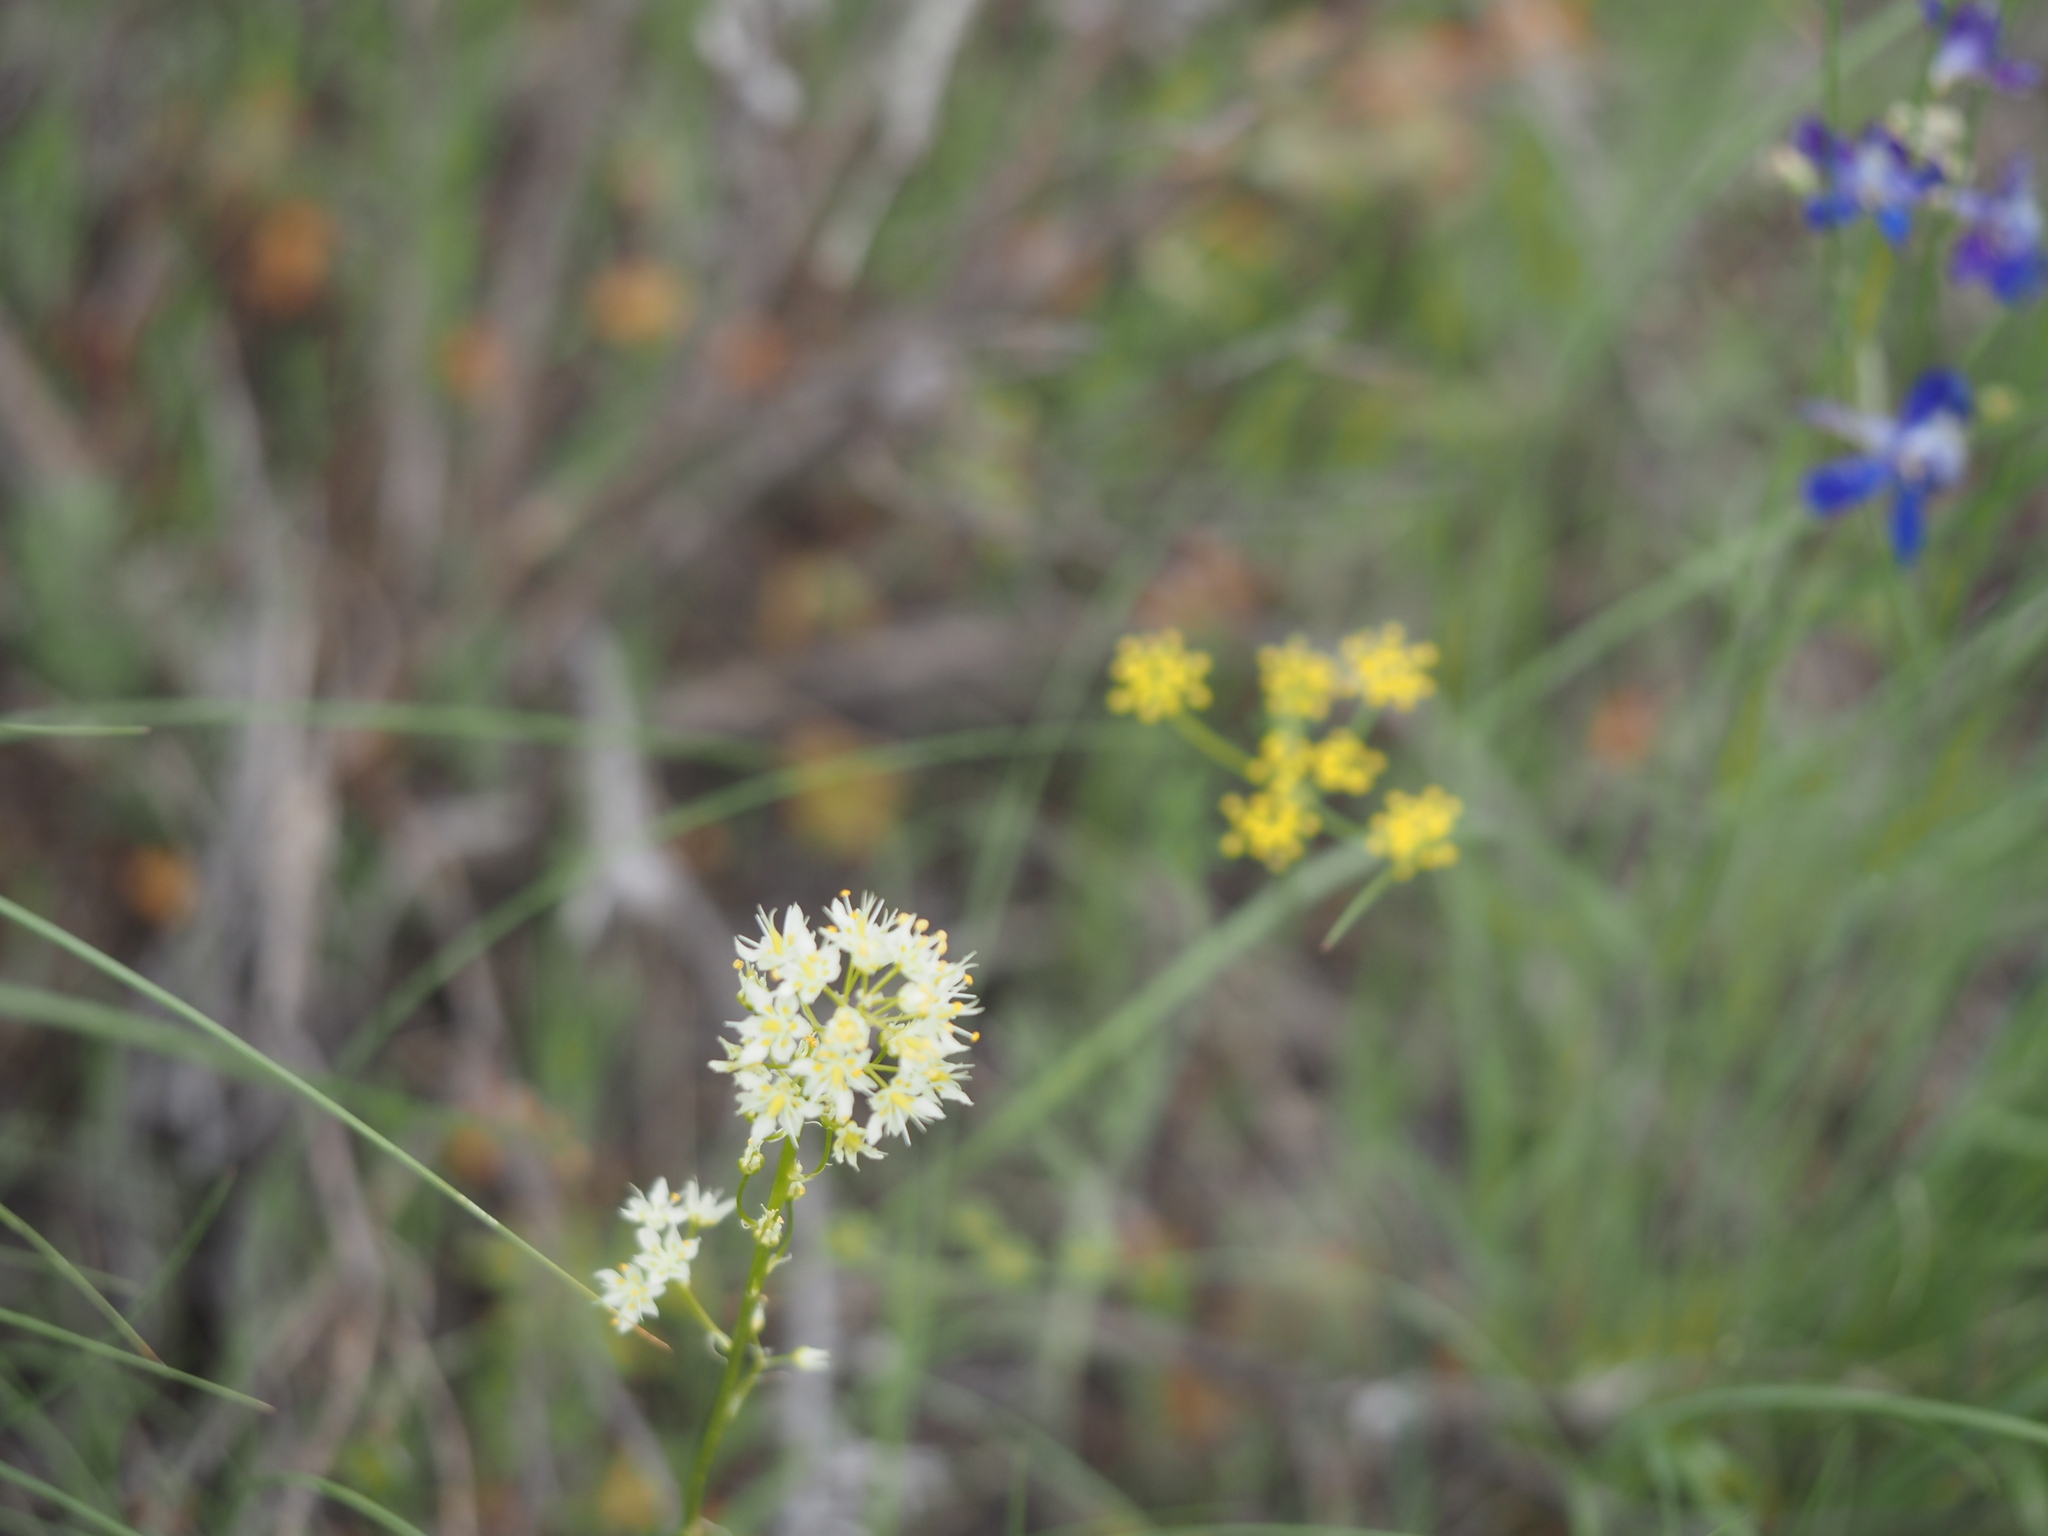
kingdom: Plantae
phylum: Tracheophyta
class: Liliopsida
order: Liliales
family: Melanthiaceae
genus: Toxicoscordion
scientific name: Toxicoscordion paniculatum
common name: Foothill death camas
